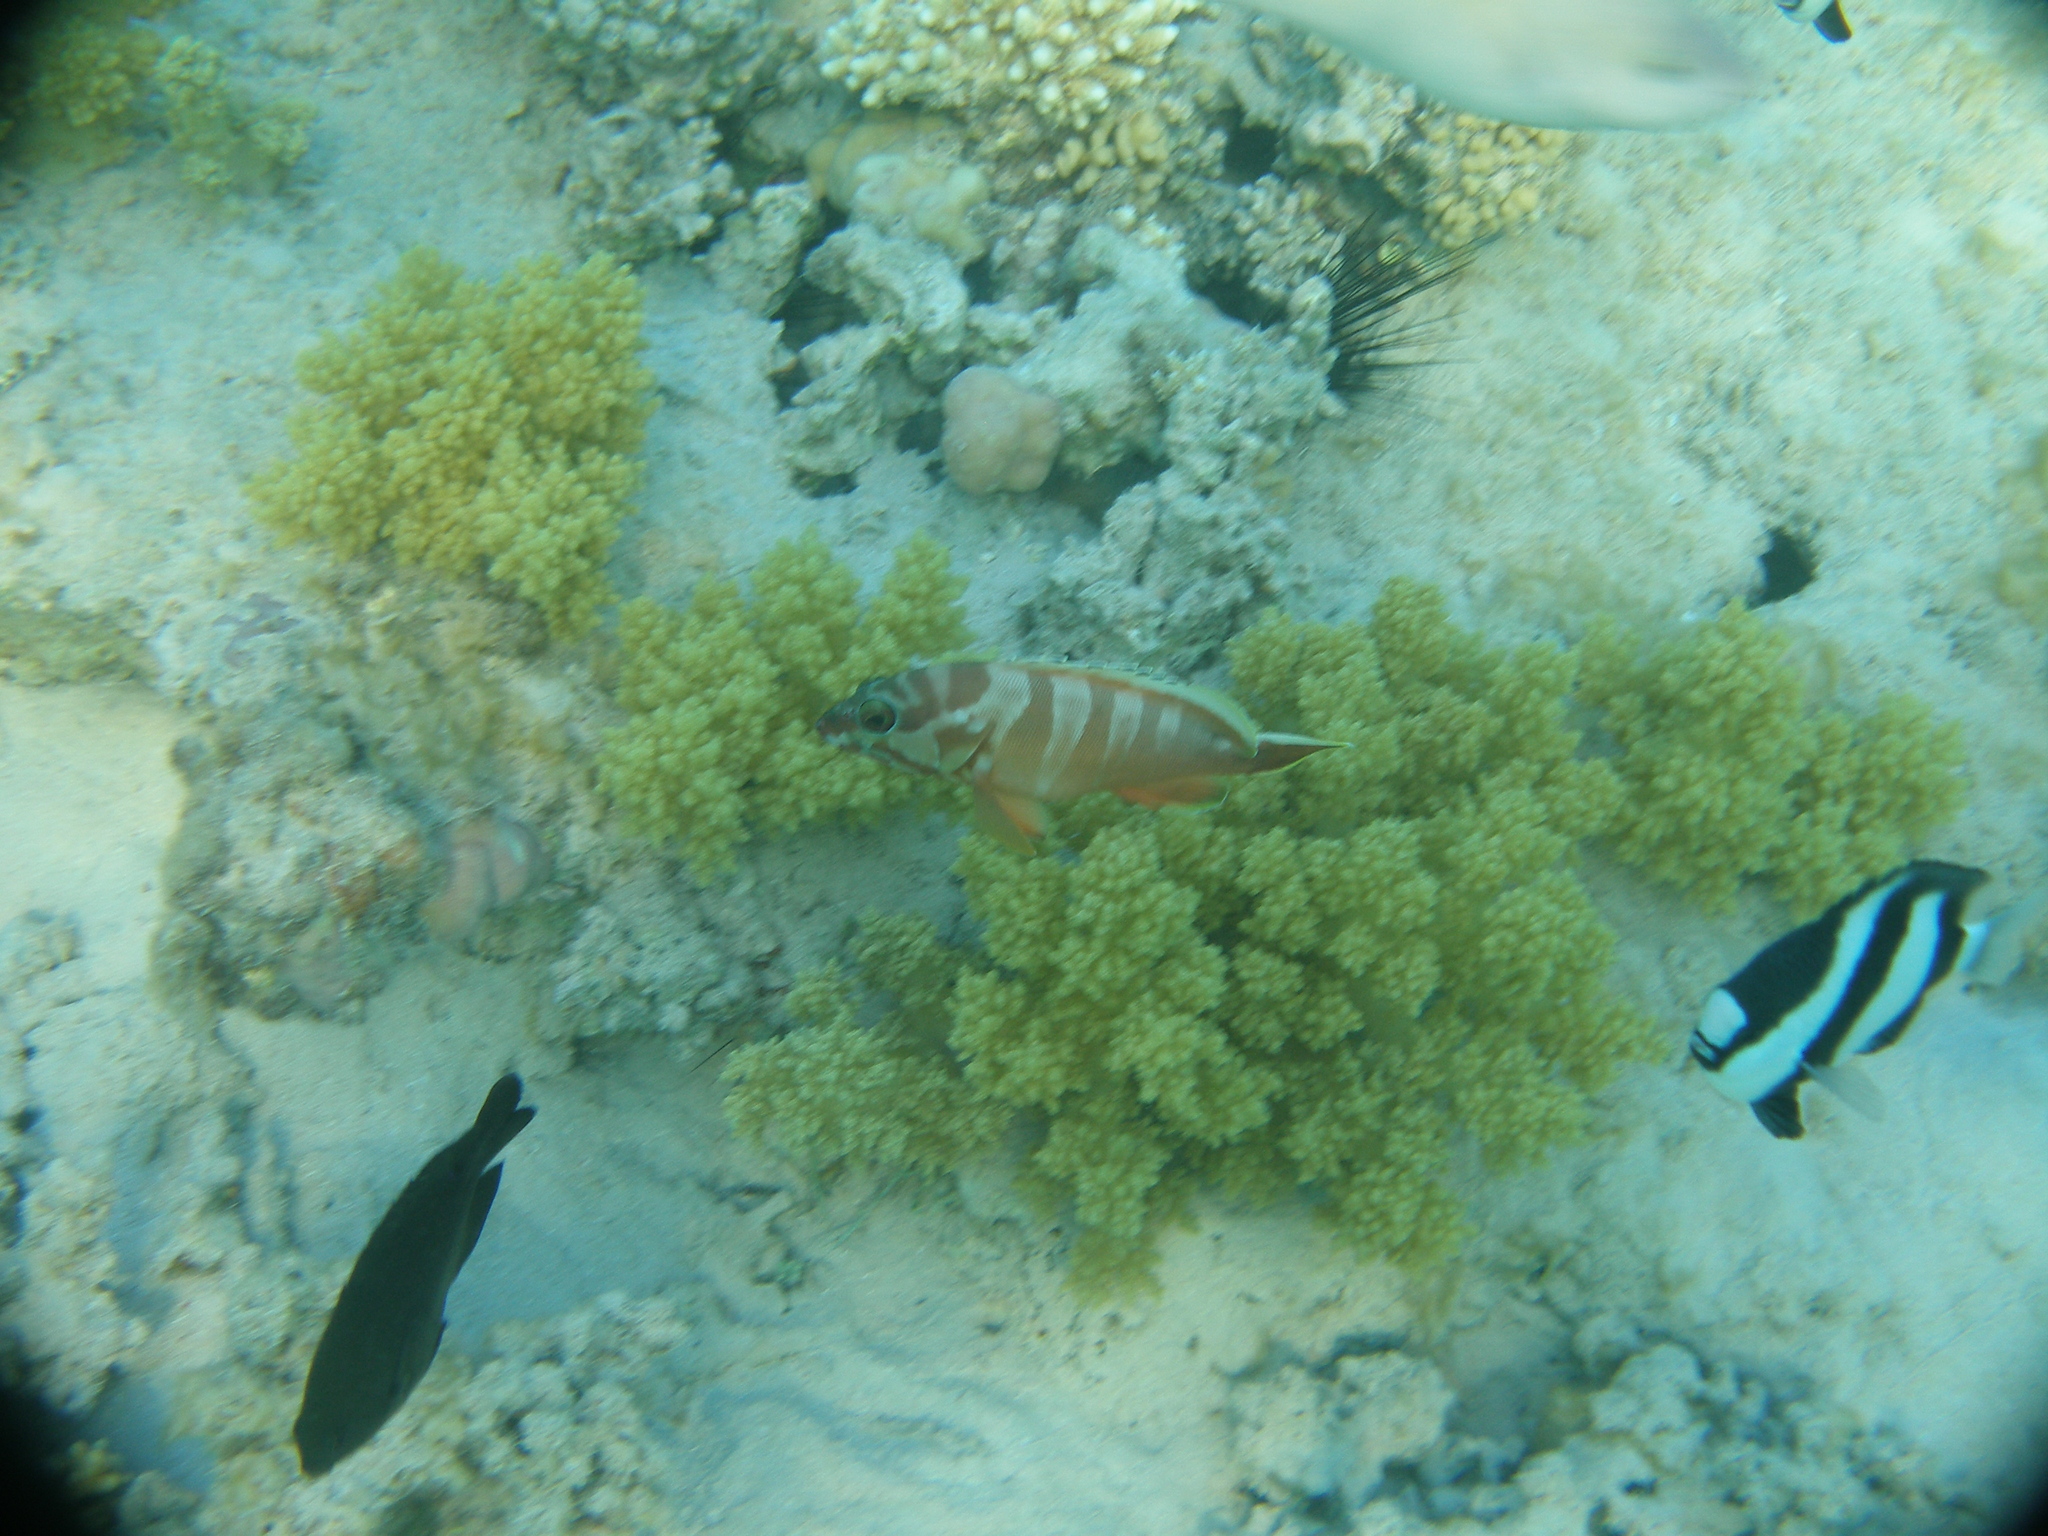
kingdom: Animalia
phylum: Chordata
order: Perciformes
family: Serranidae
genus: Epinephelus
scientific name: Epinephelus fasciatus
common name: Blacktip grouper
